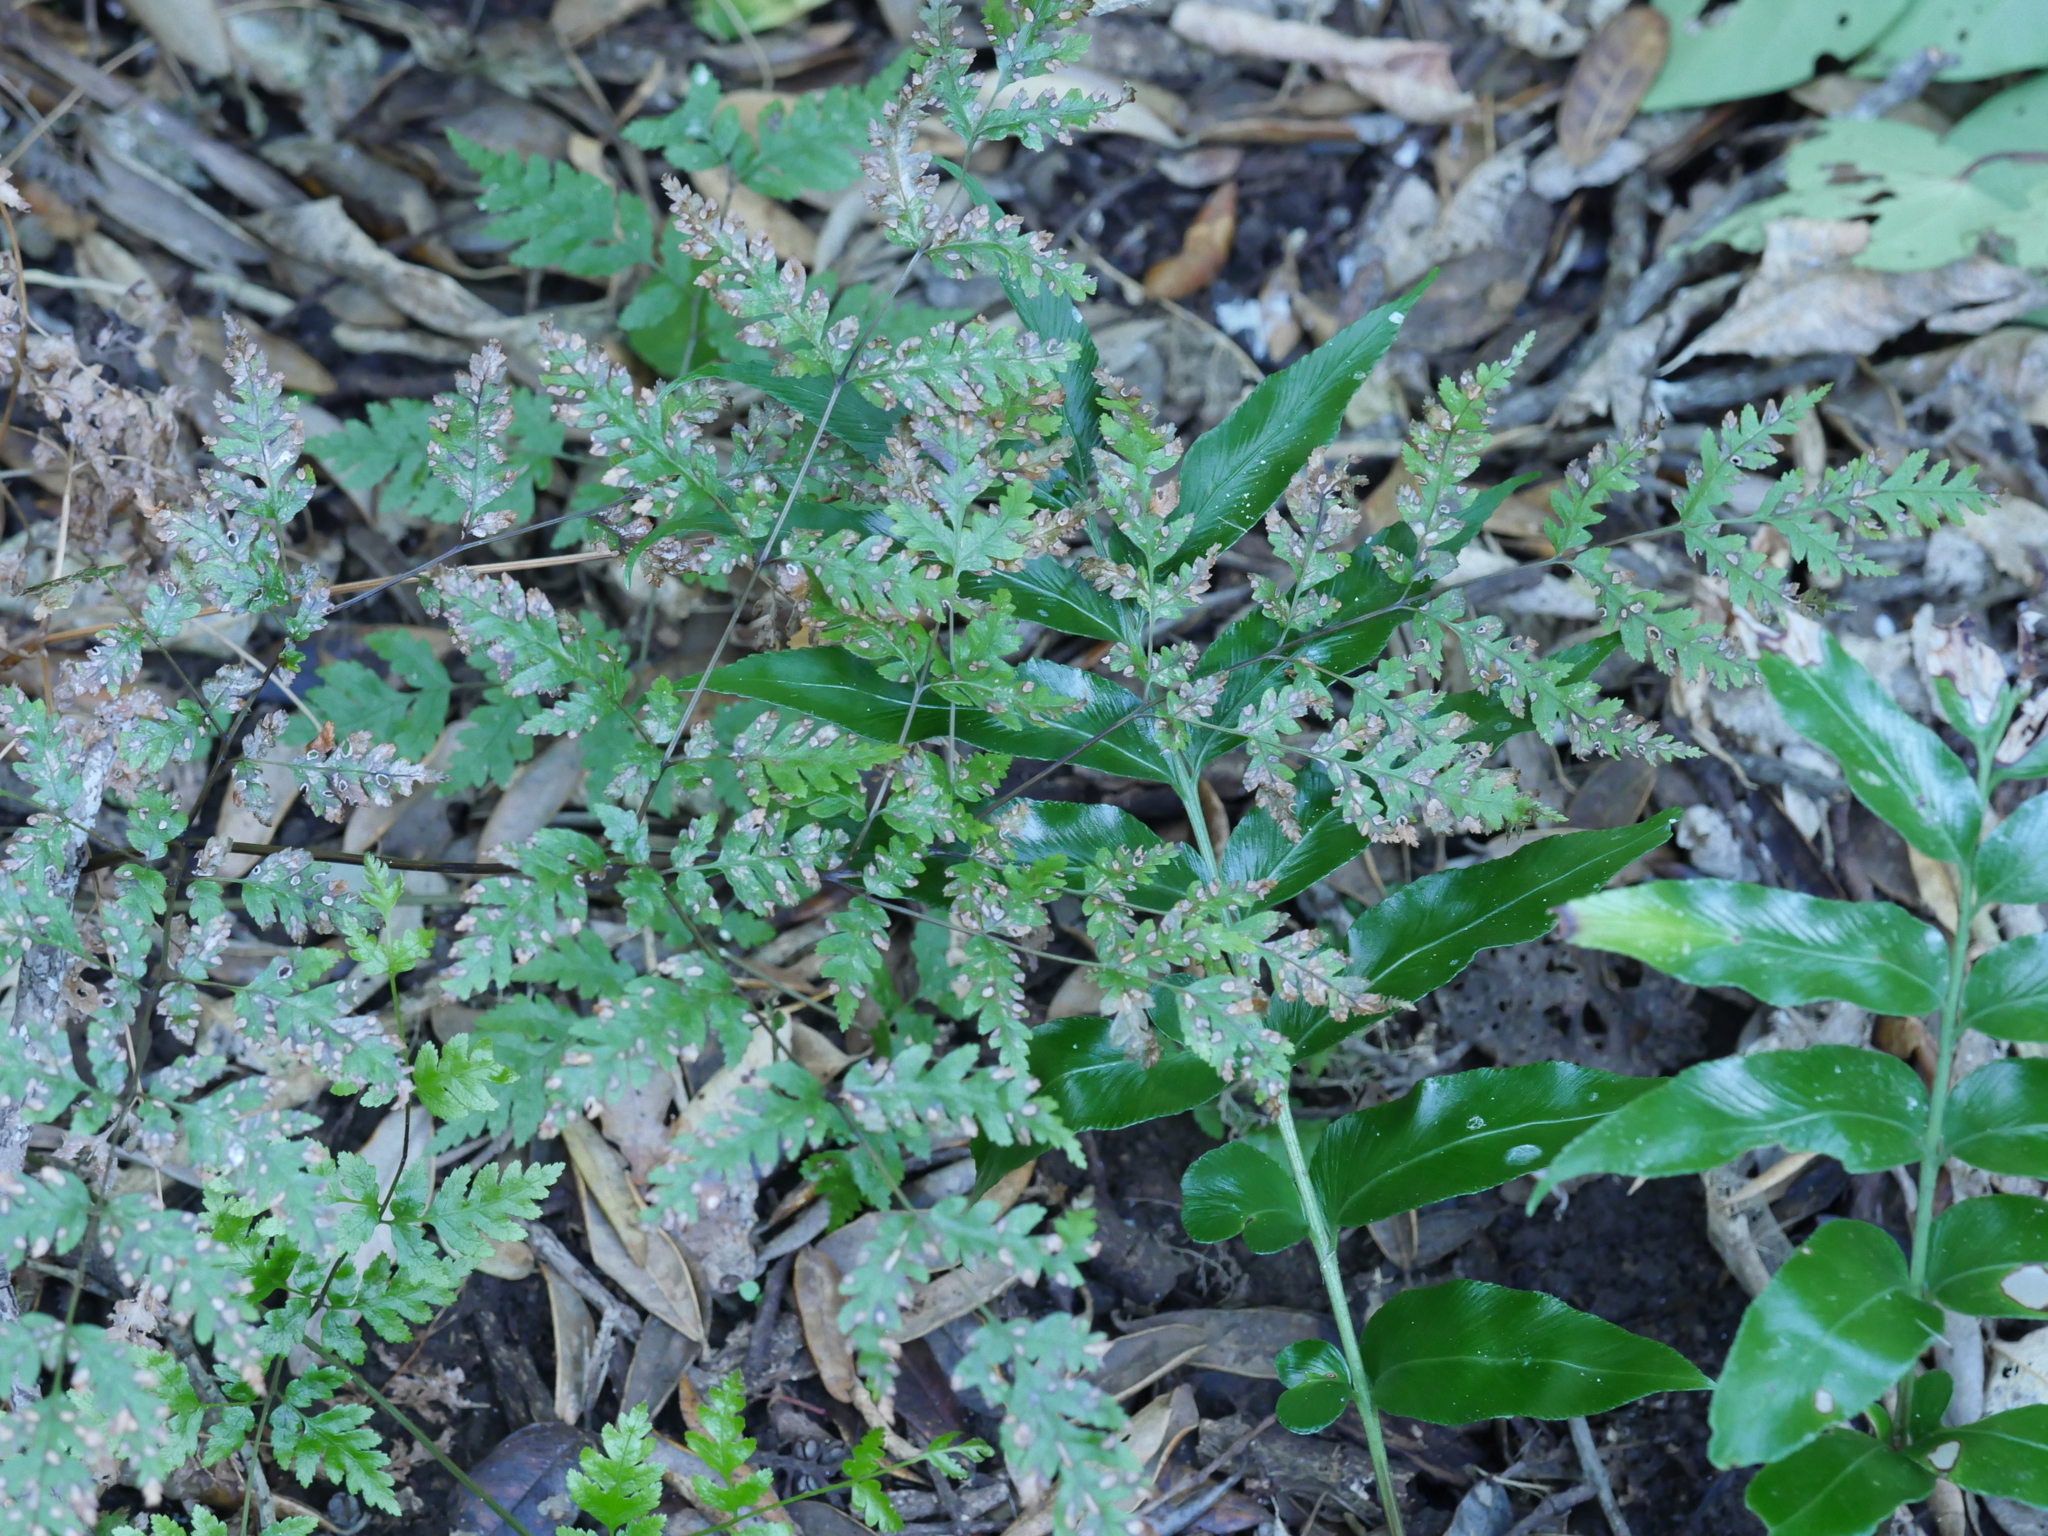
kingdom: Plantae
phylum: Tracheophyta
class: Polypodiopsida
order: Polypodiales
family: Pteridaceae
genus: Pteris
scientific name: Pteris macilenta
